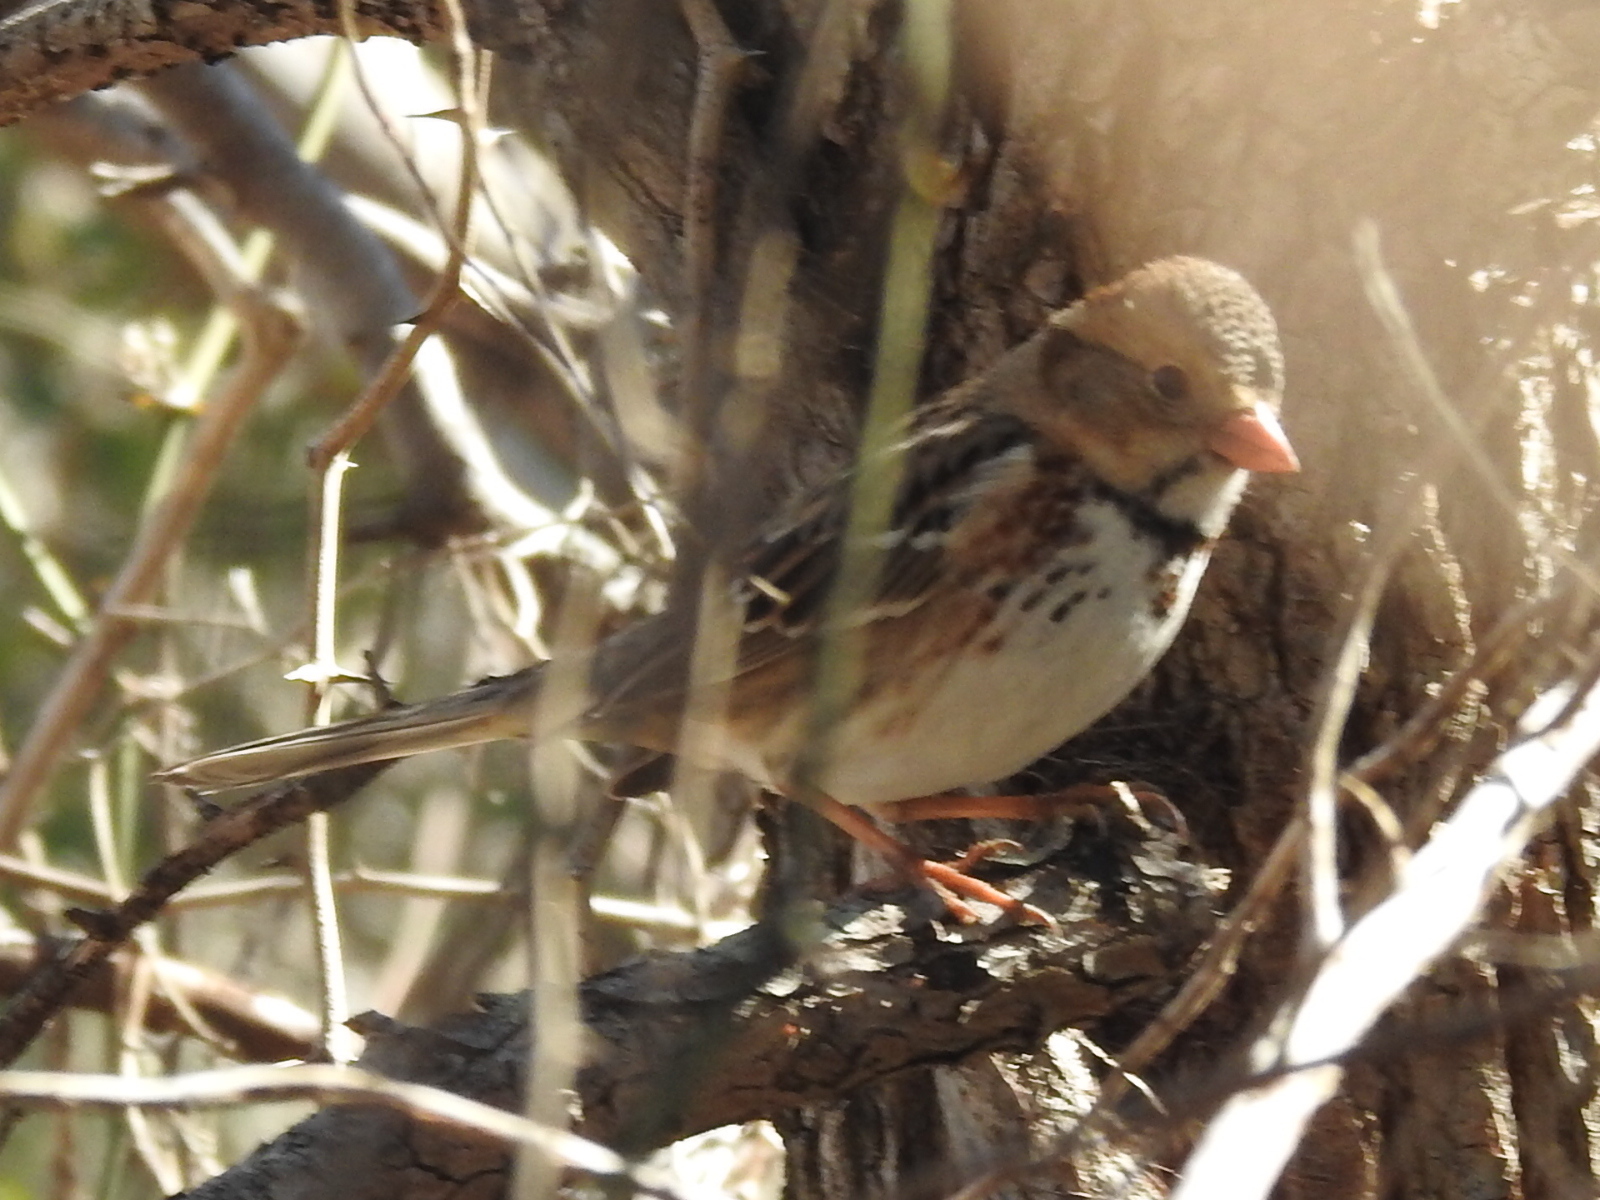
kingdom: Animalia
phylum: Chordata
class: Aves
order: Passeriformes
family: Passerellidae
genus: Zonotrichia
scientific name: Zonotrichia querula
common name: Harris's sparrow
